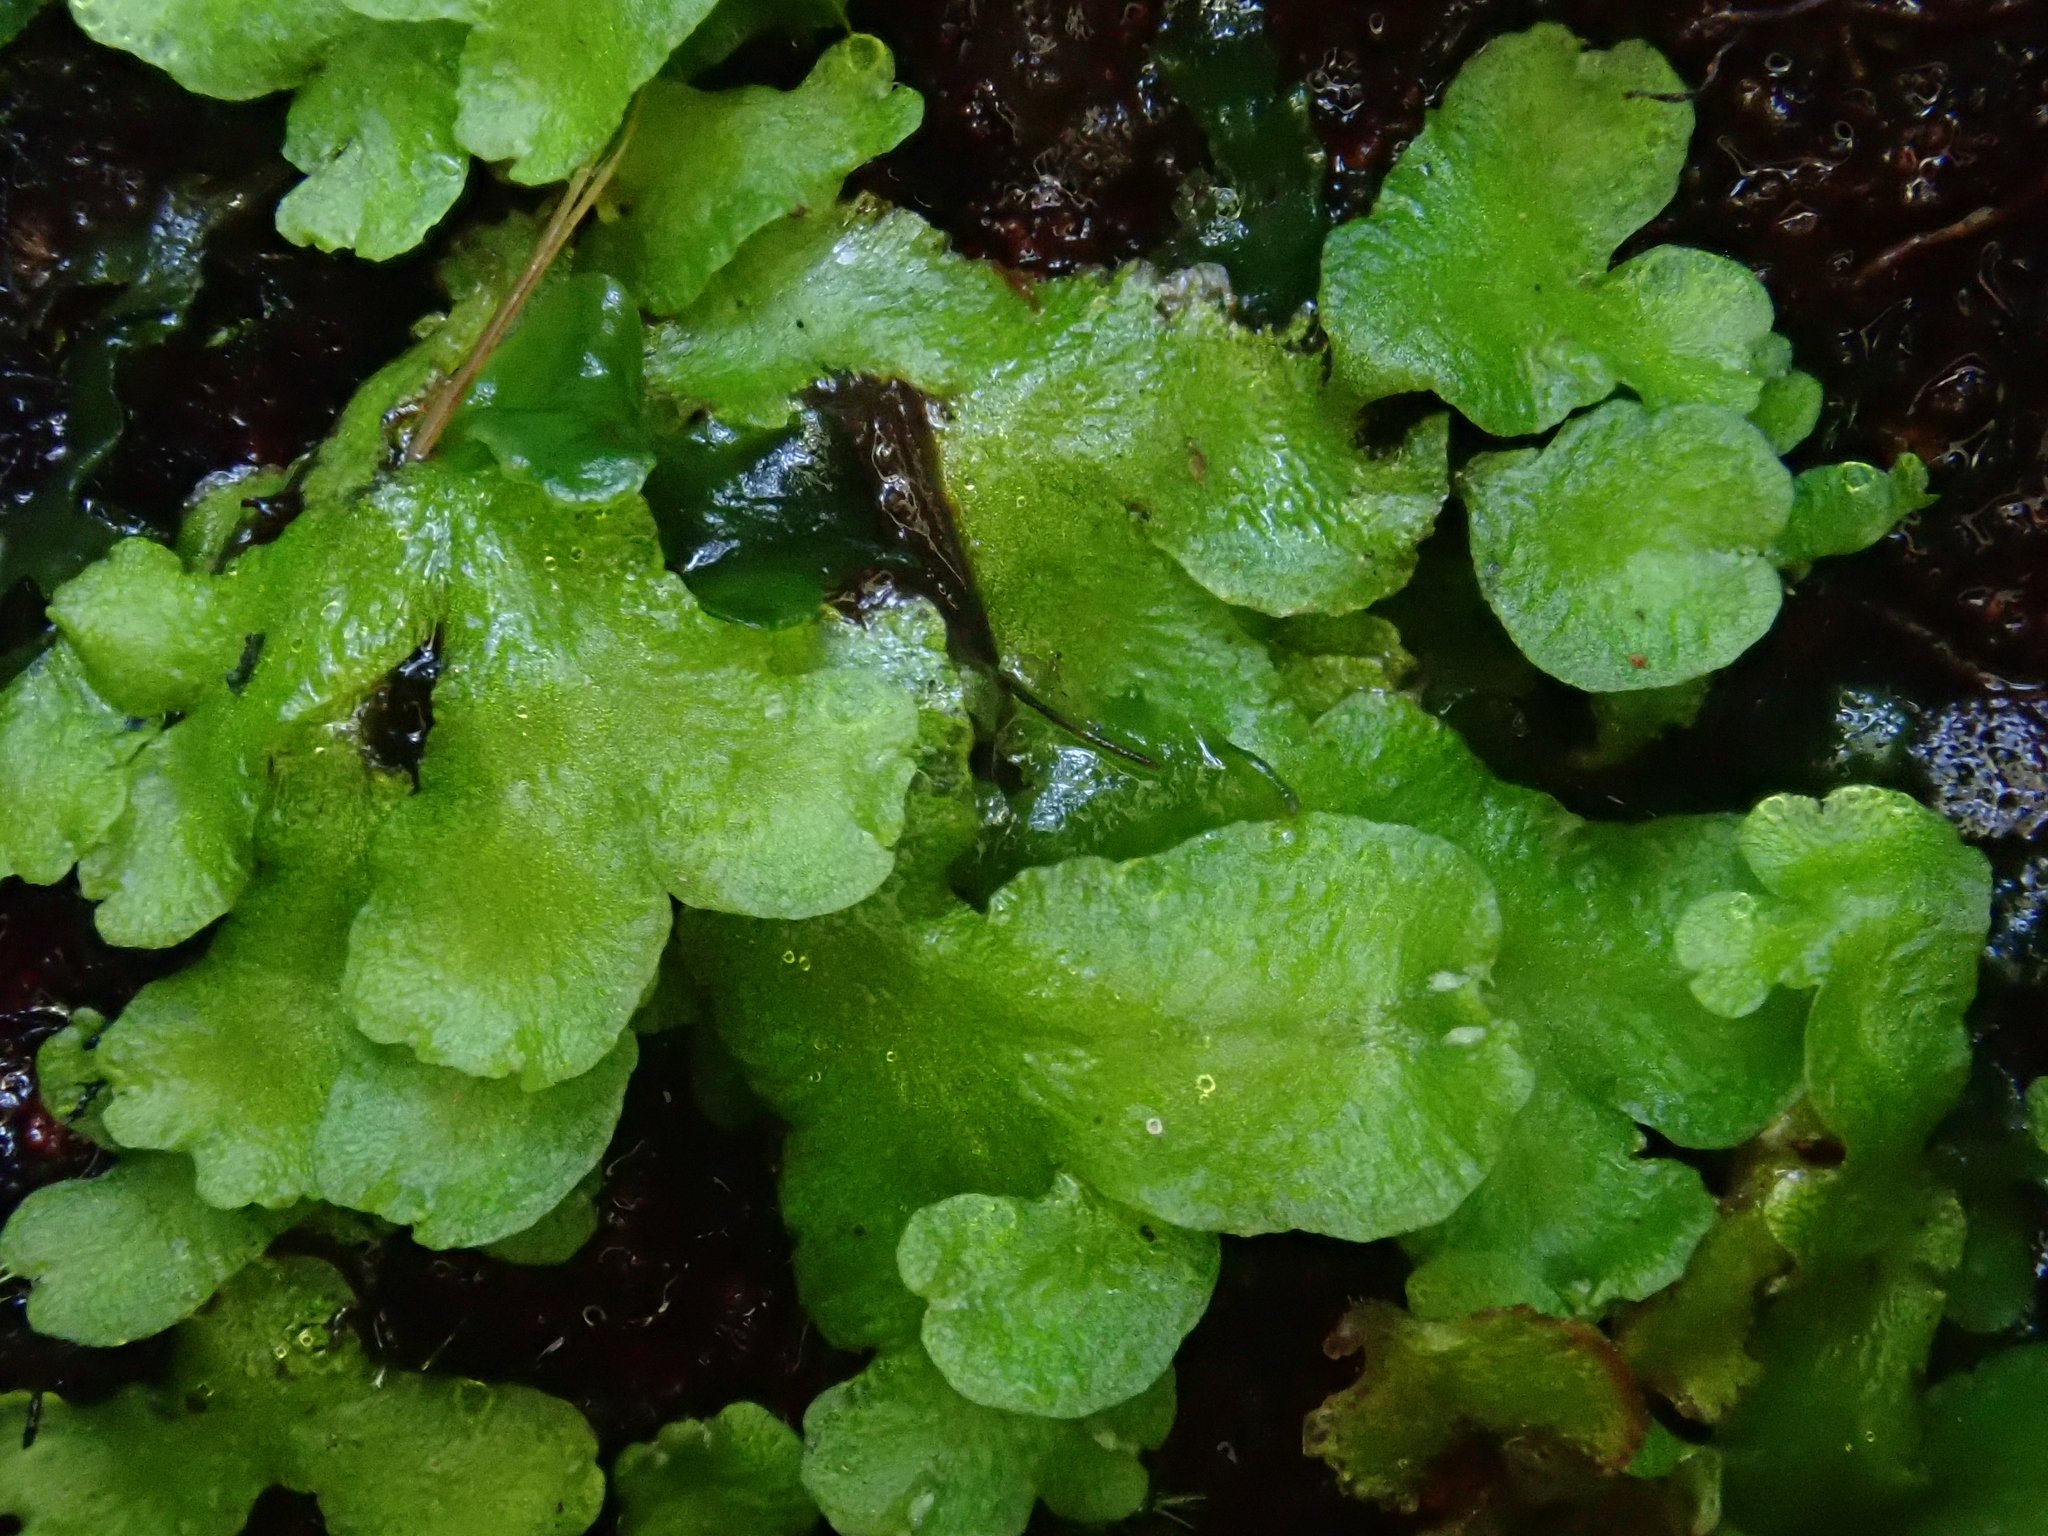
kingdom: Plantae
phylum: Marchantiophyta
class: Marchantiopsida
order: Marchantiales
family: Aytoniaceae
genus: Asterella
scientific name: Asterella africana
